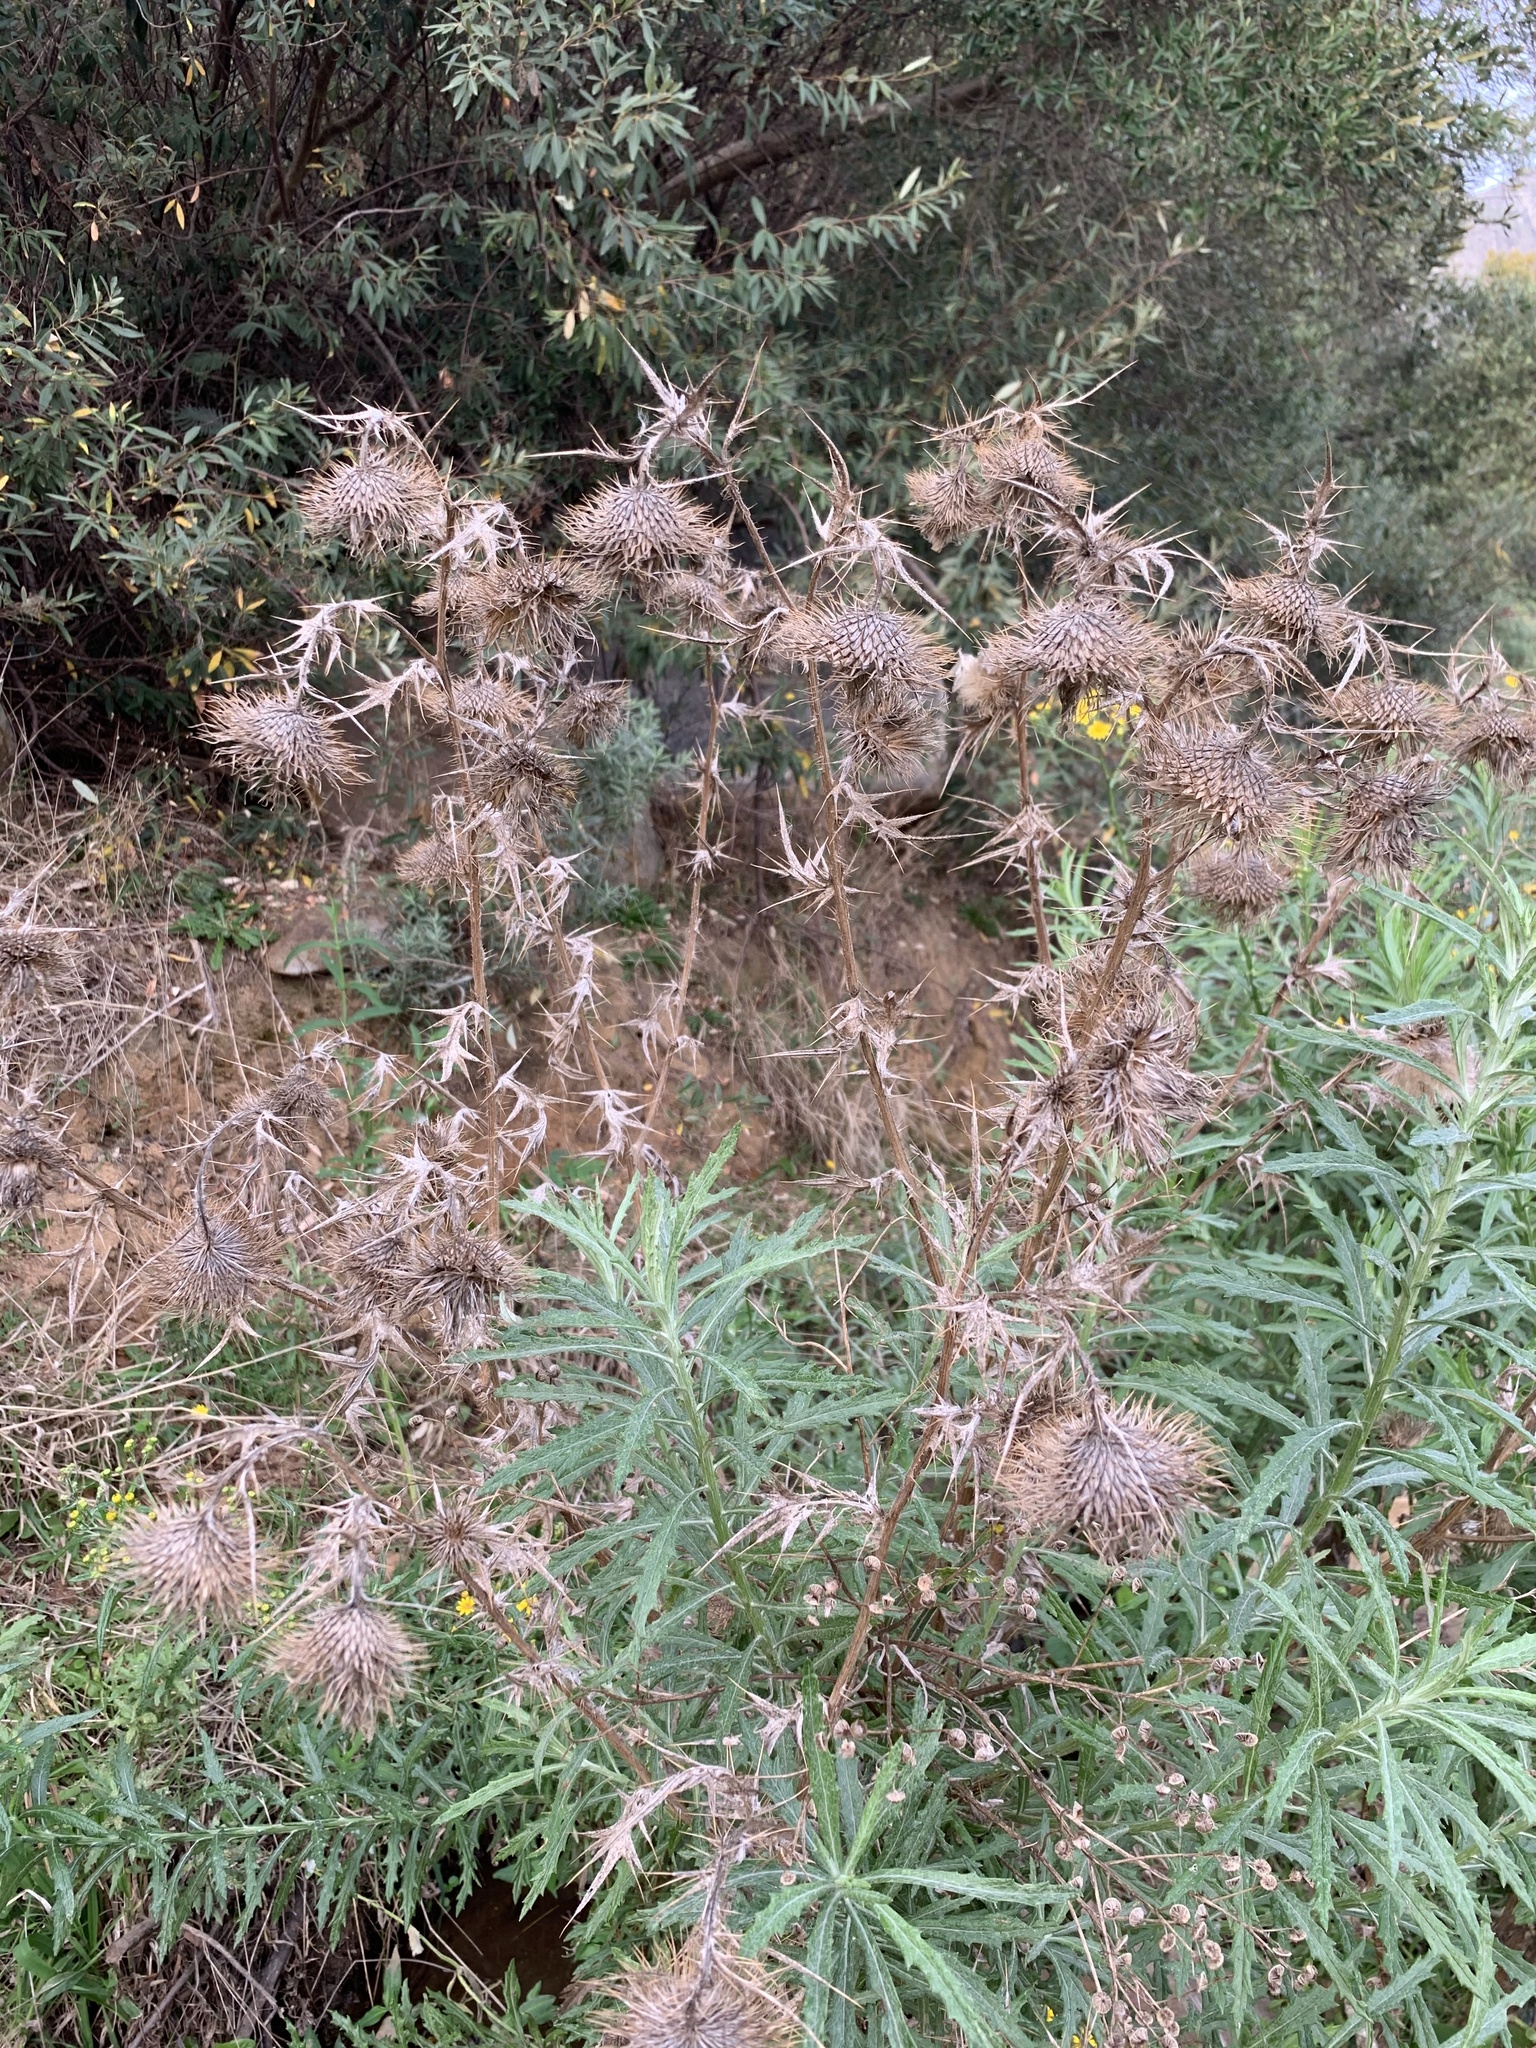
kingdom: Plantae
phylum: Tracheophyta
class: Magnoliopsida
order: Asterales
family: Asteraceae
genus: Cirsium
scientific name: Cirsium vulgare
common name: Bull thistle
